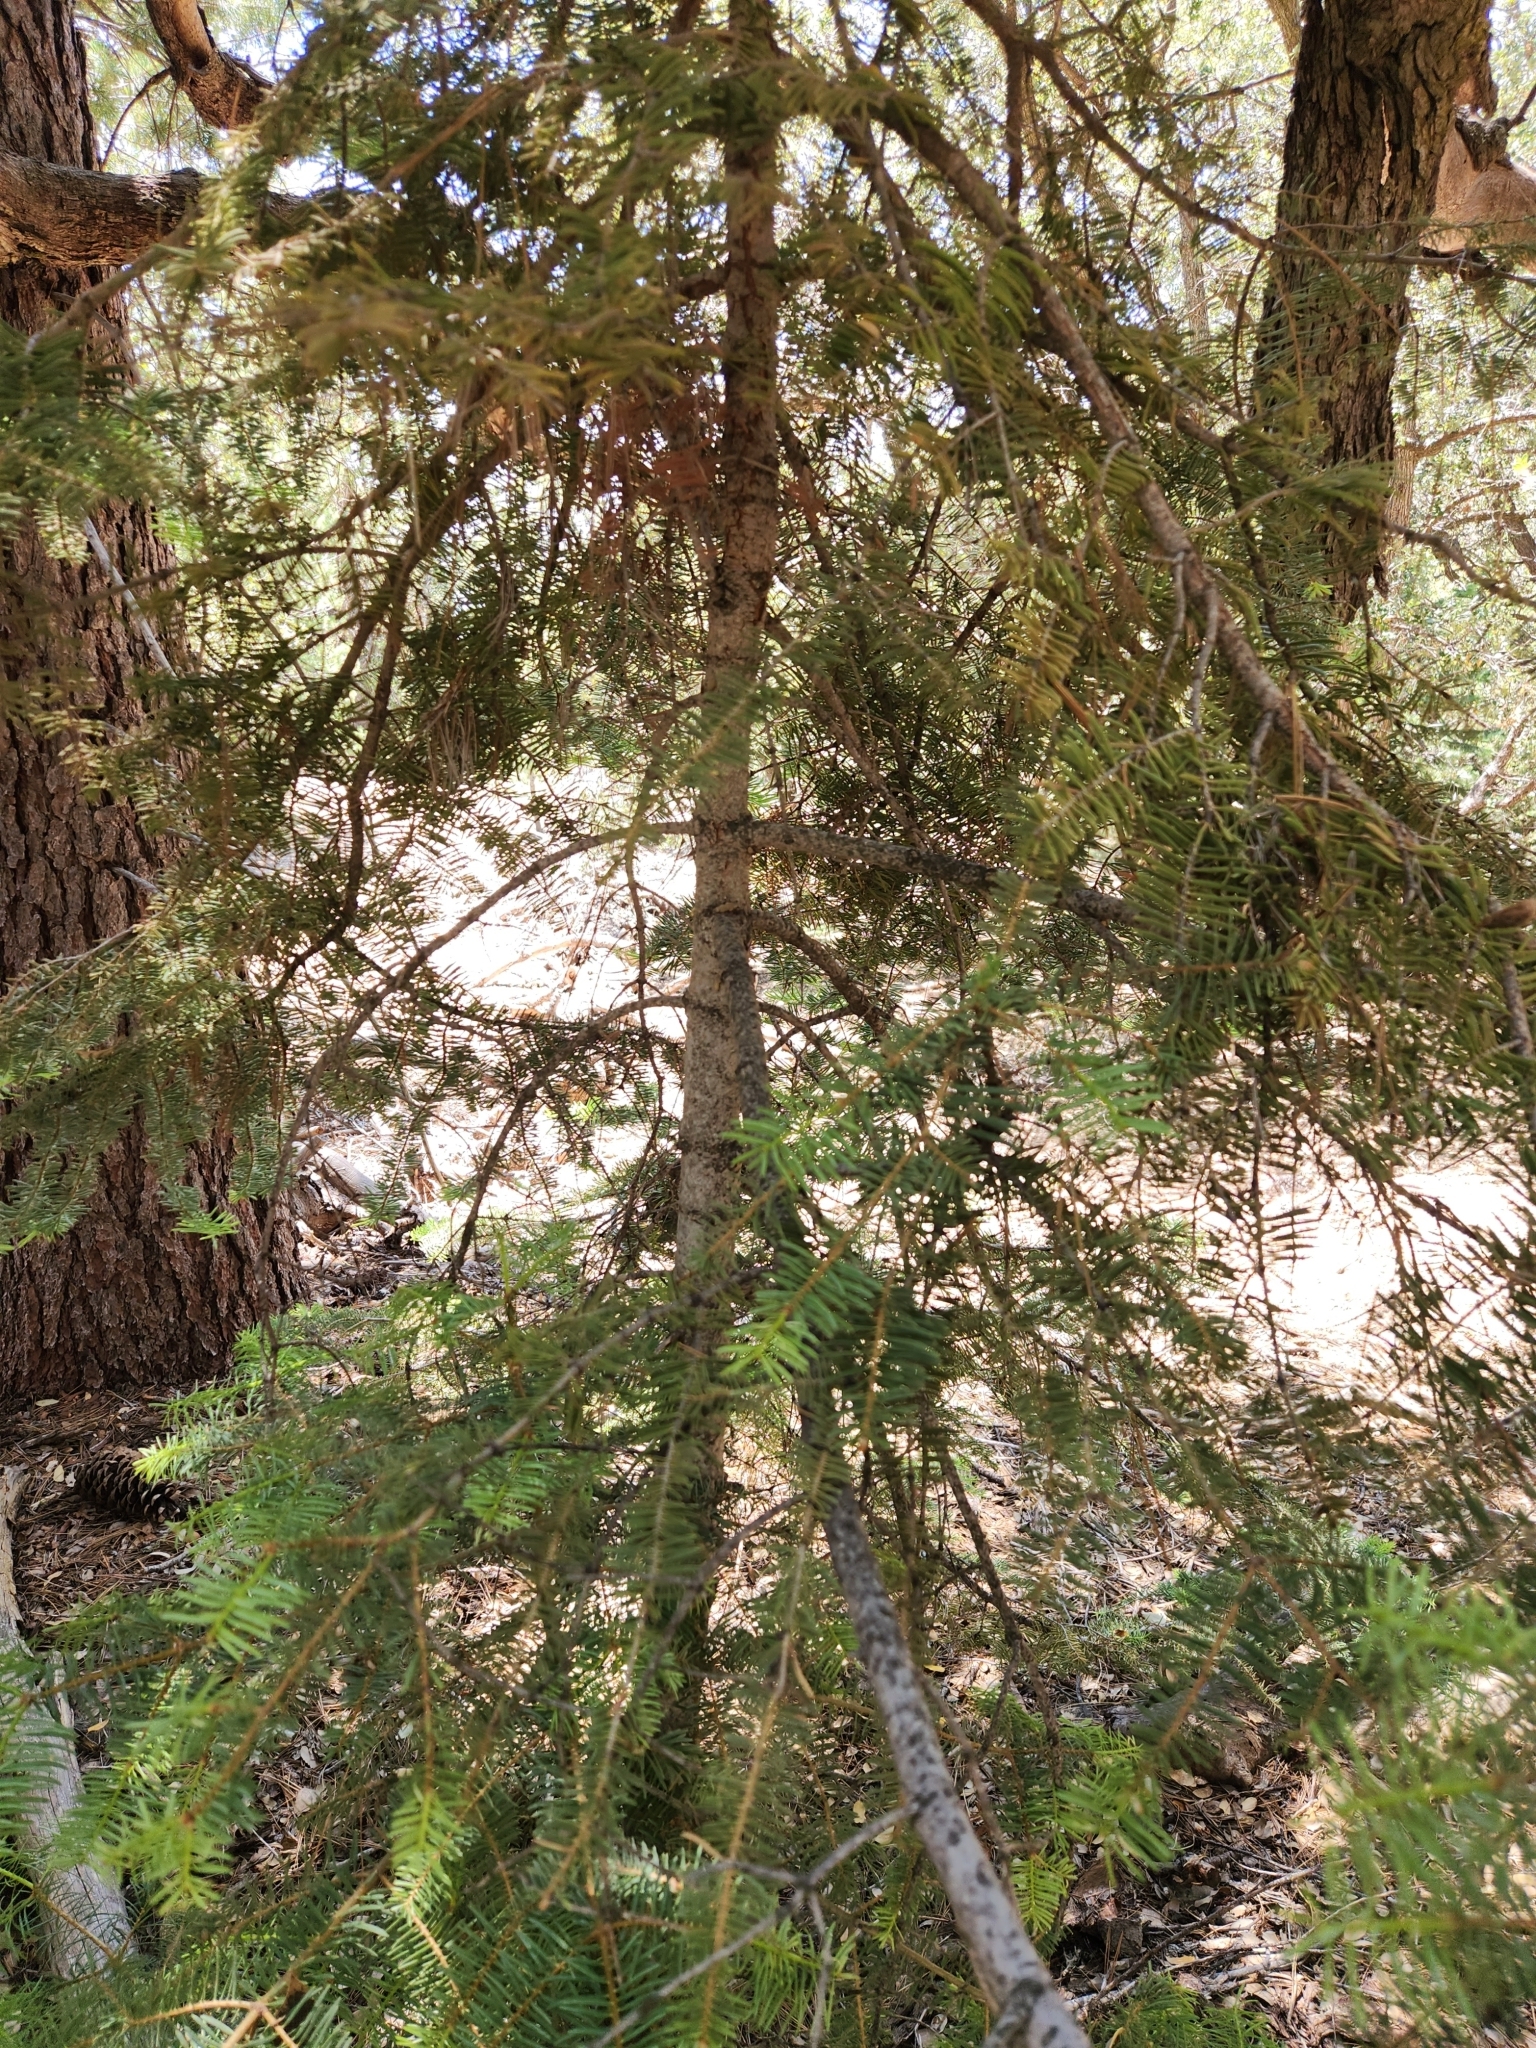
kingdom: Plantae
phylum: Tracheophyta
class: Pinopsida
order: Pinales
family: Pinaceae
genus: Abies
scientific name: Abies concolor
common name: Colorado fir
